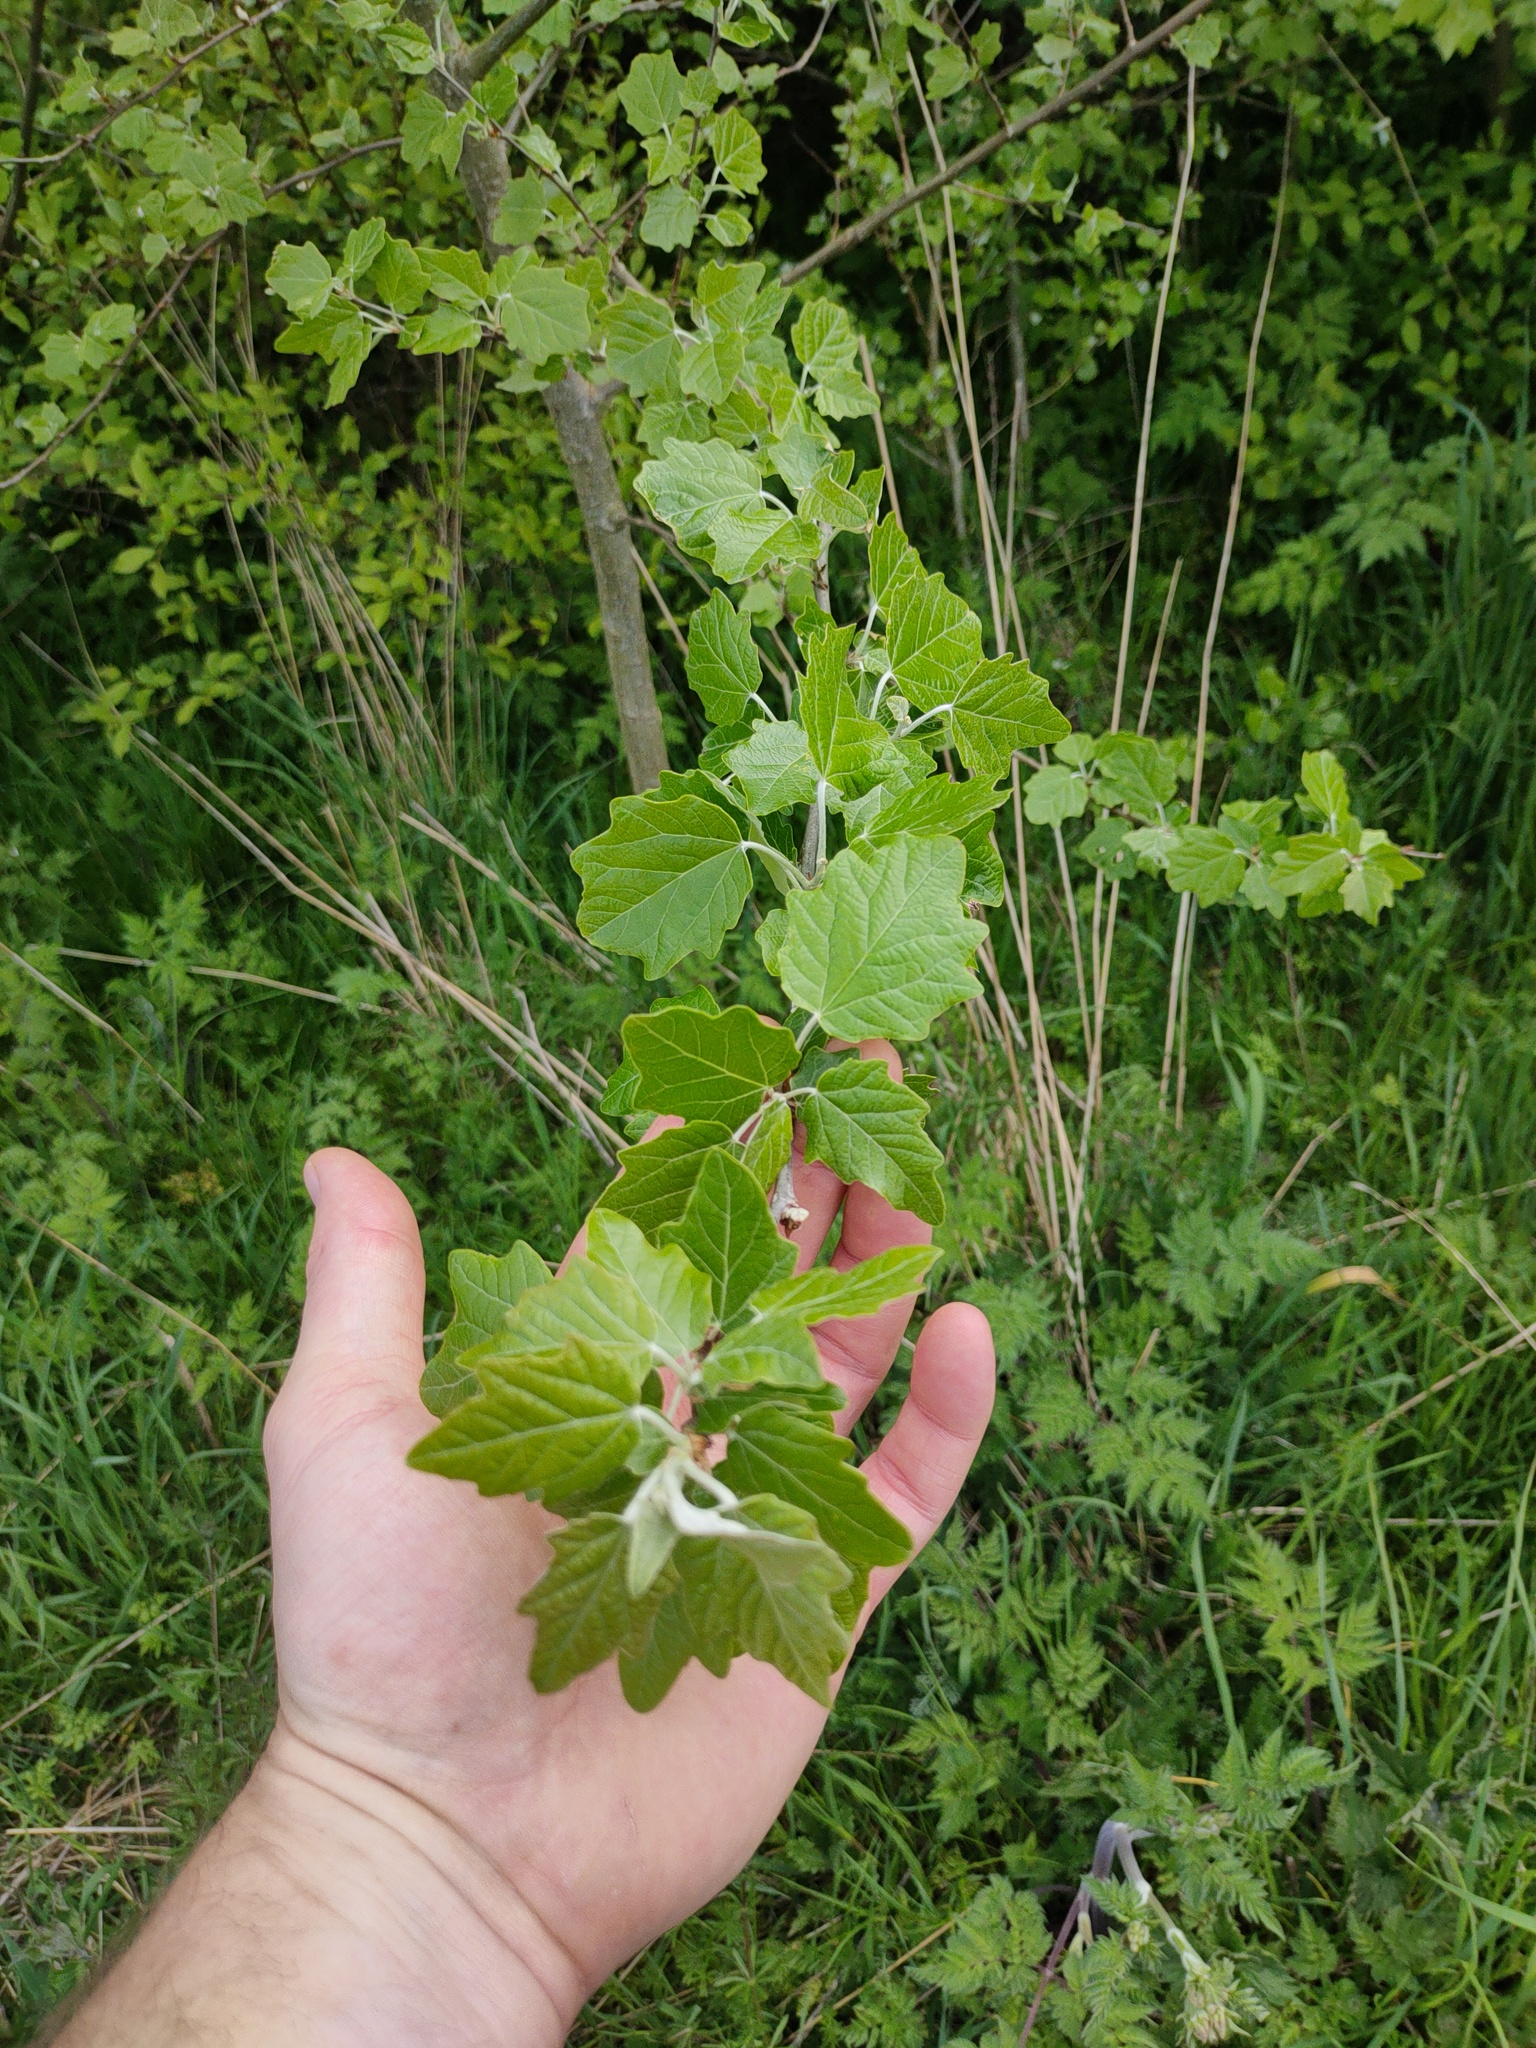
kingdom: Plantae
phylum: Tracheophyta
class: Magnoliopsida
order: Malpighiales
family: Salicaceae
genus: Populus
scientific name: Populus alba
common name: White poplar
